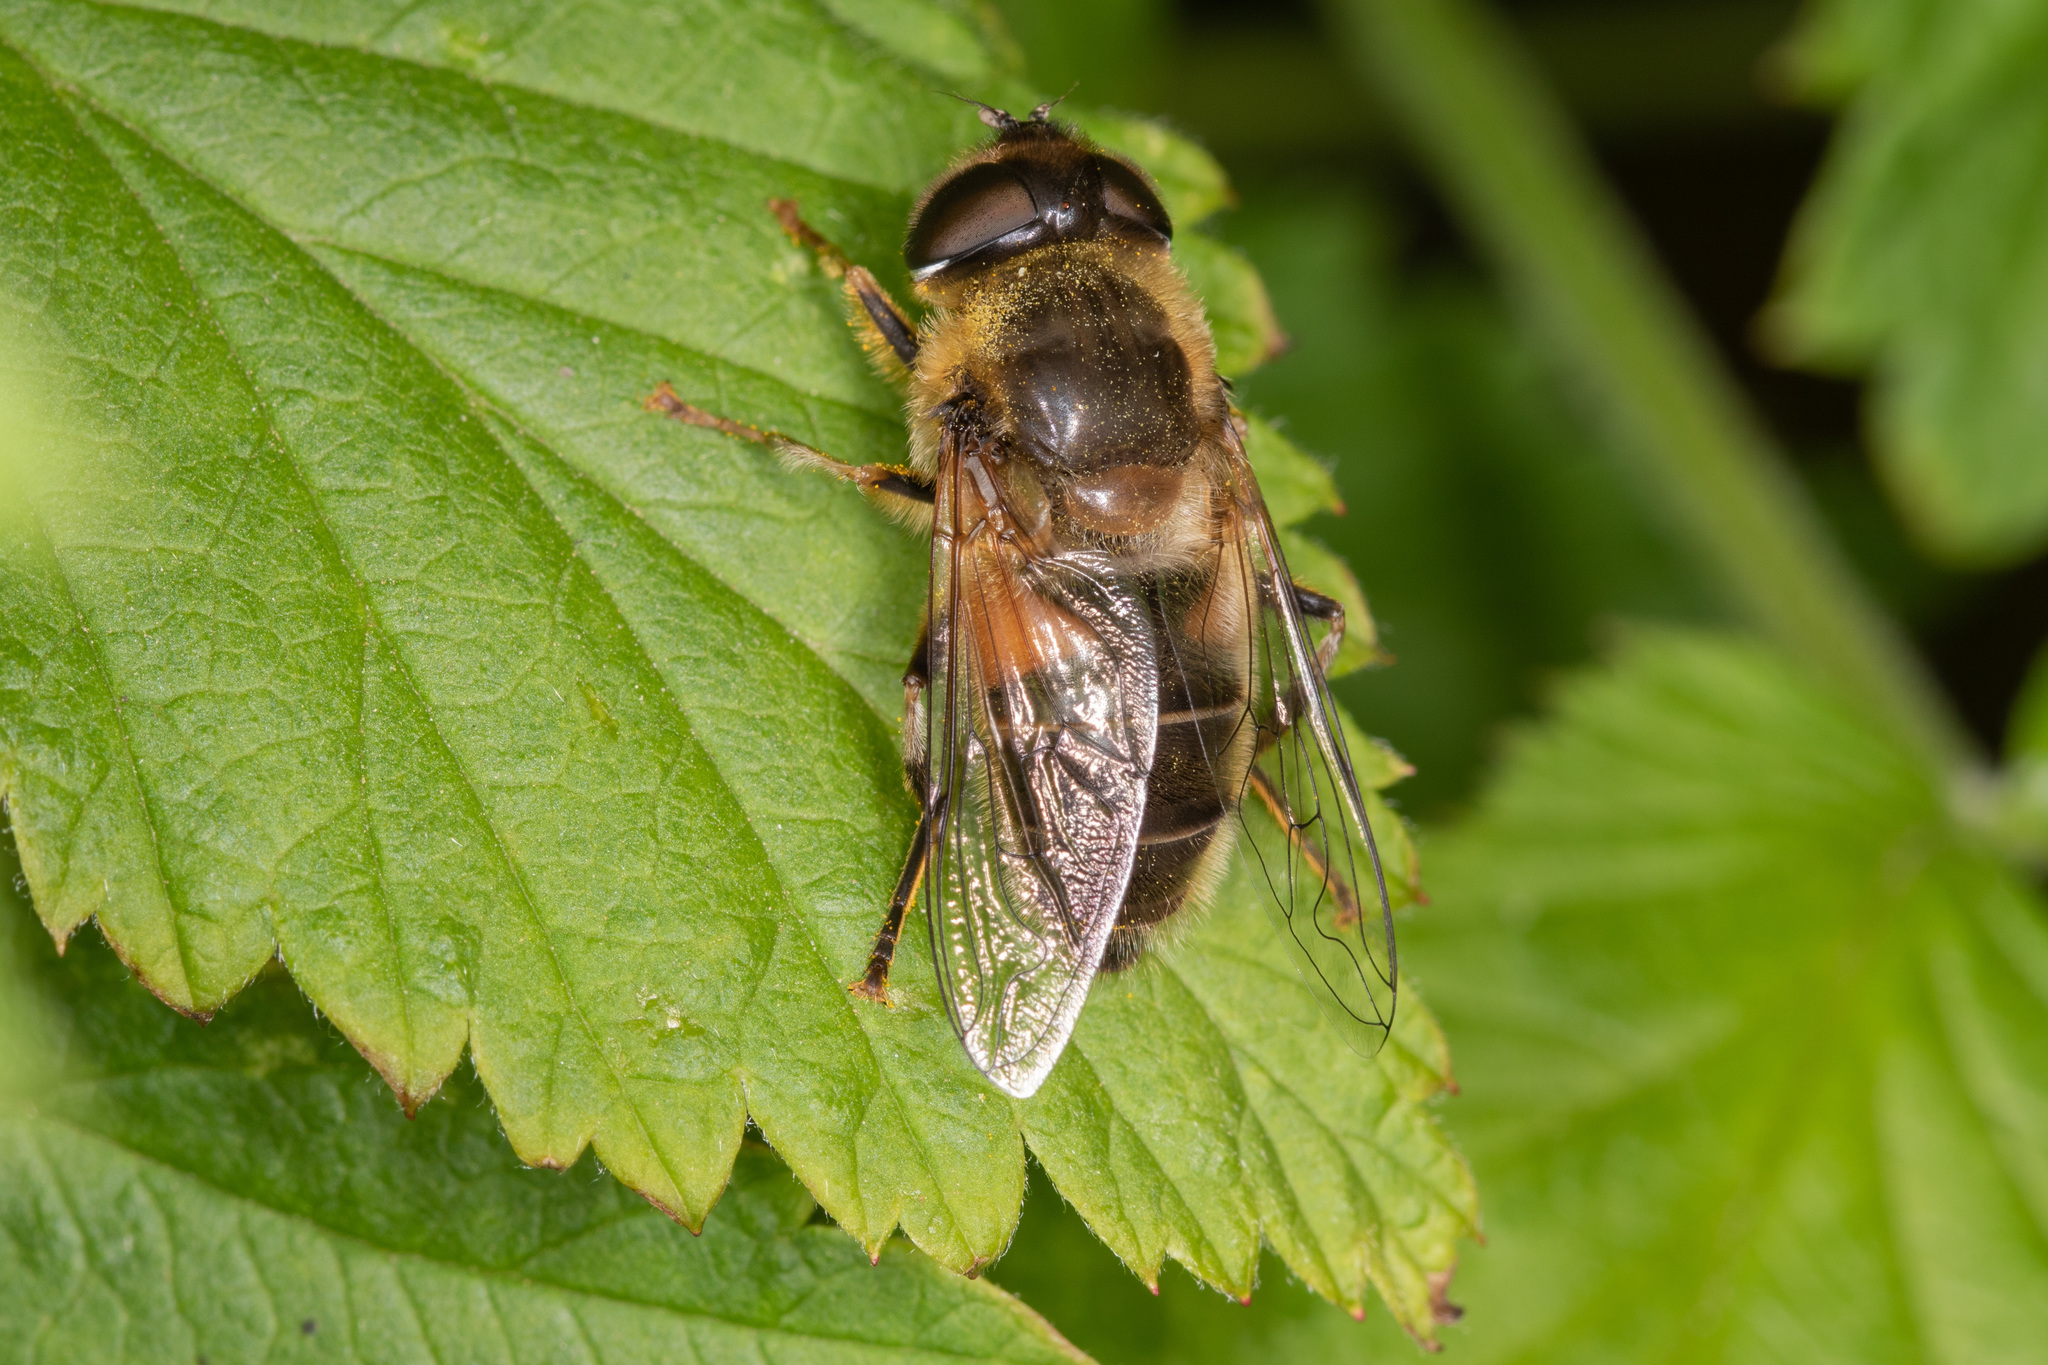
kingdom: Animalia
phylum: Arthropoda
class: Insecta
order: Diptera
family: Syrphidae
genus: Eristalis
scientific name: Eristalis pertinax
